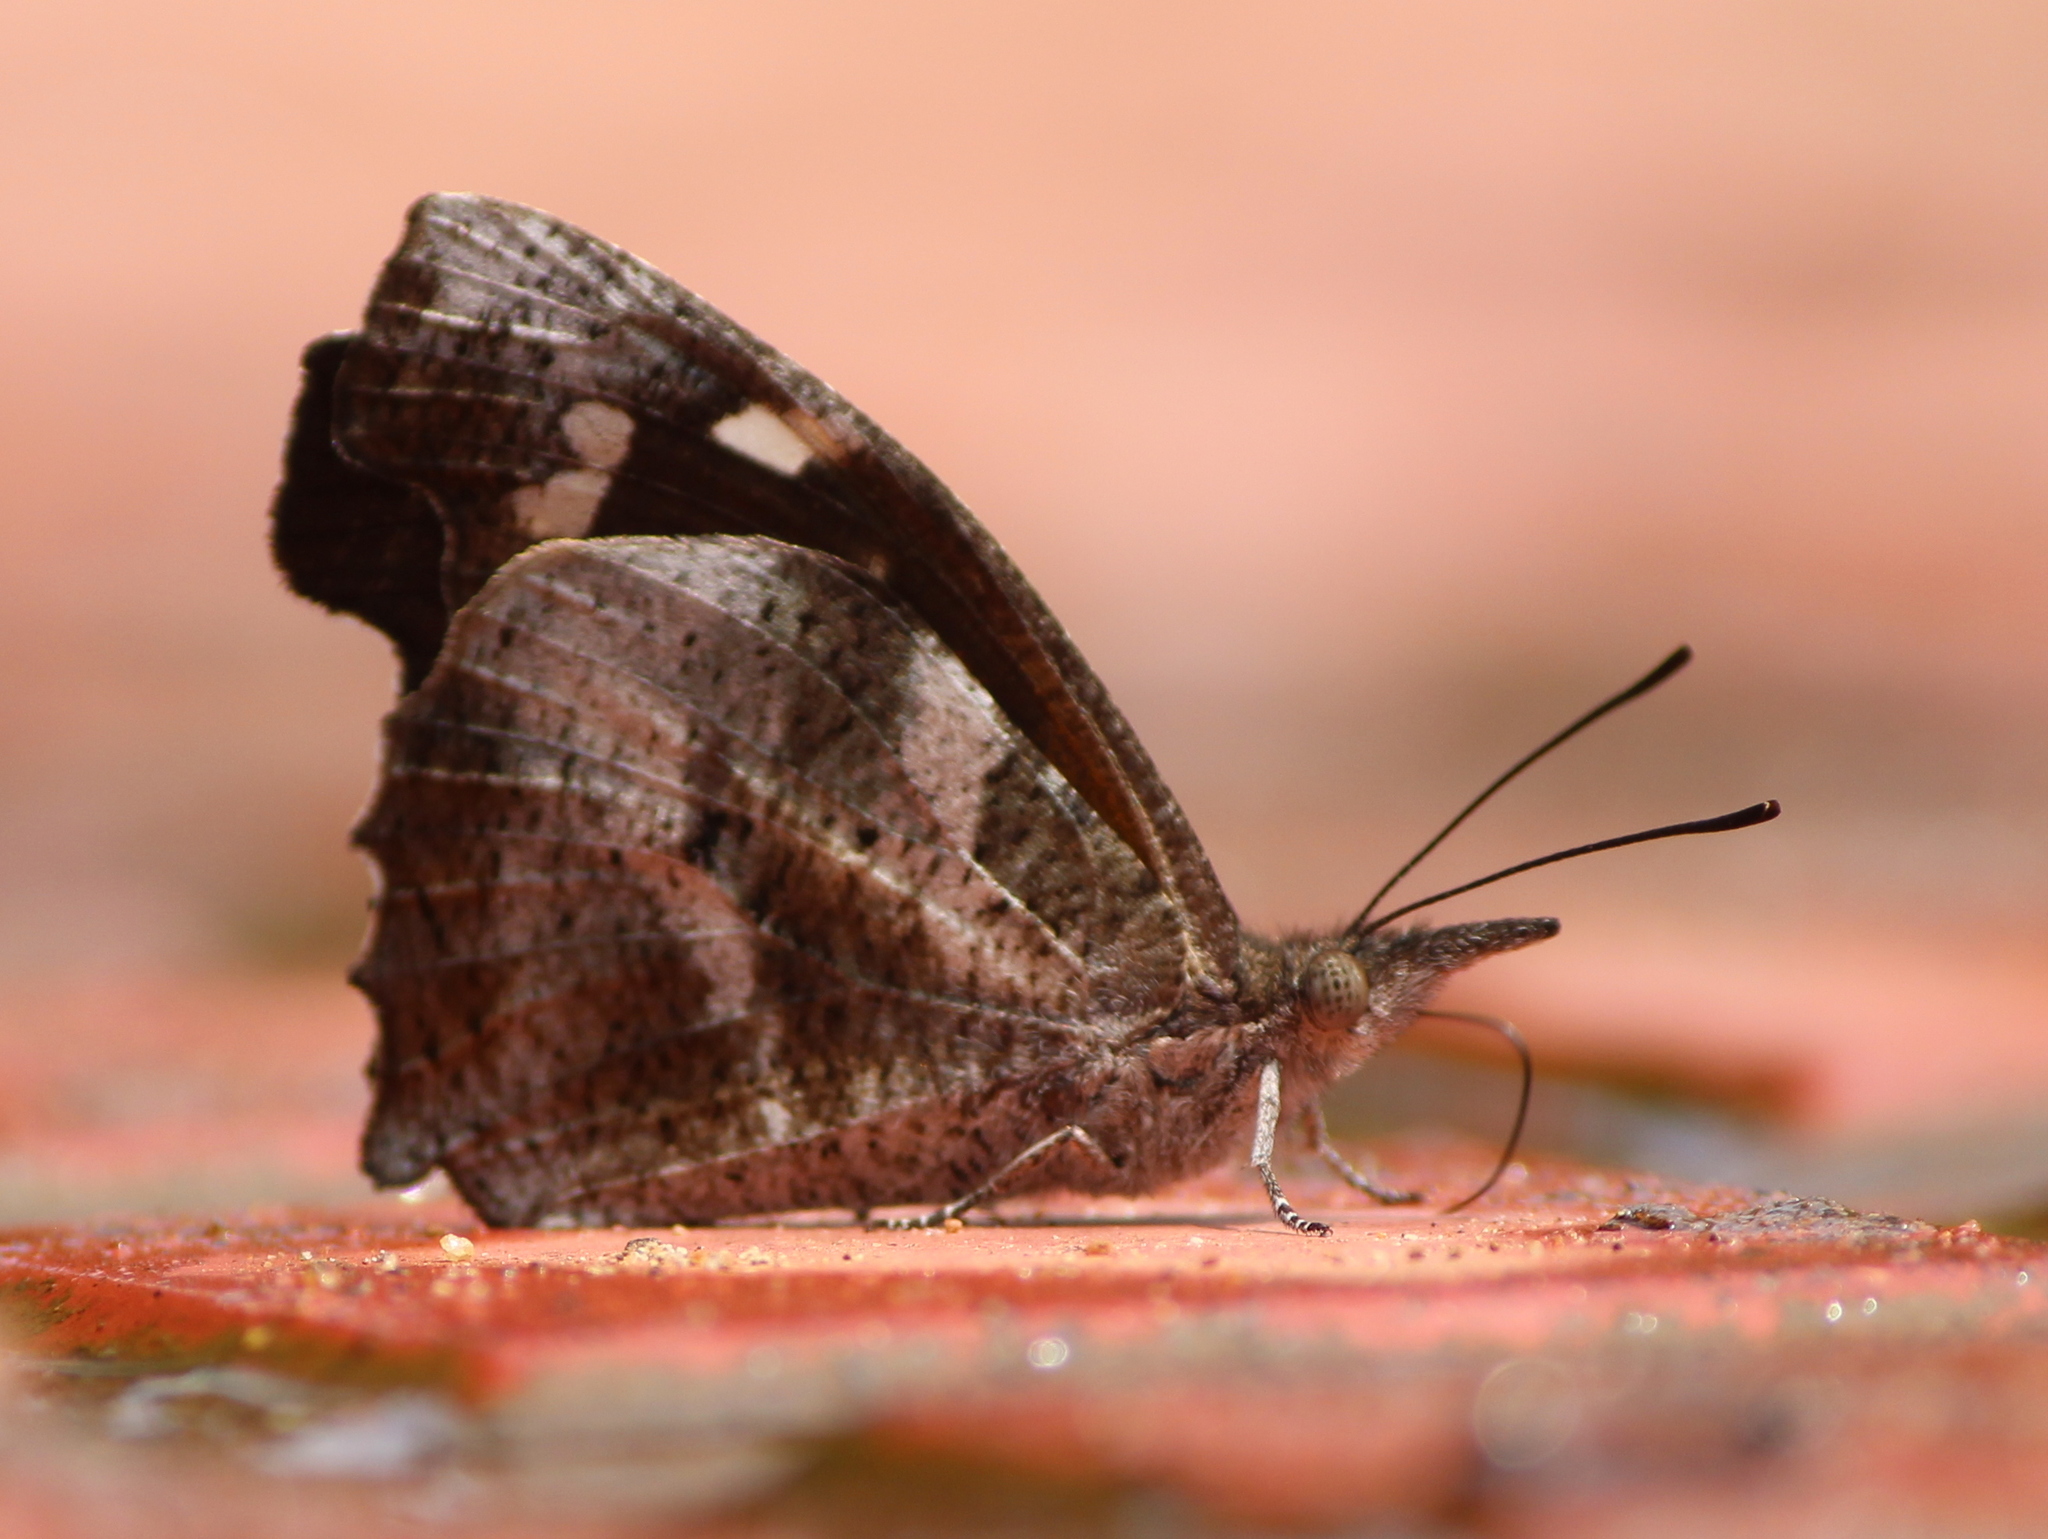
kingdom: Animalia
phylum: Arthropoda
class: Insecta
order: Lepidoptera
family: Nymphalidae
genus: Libythea
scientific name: Libythea laius
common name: African snout
